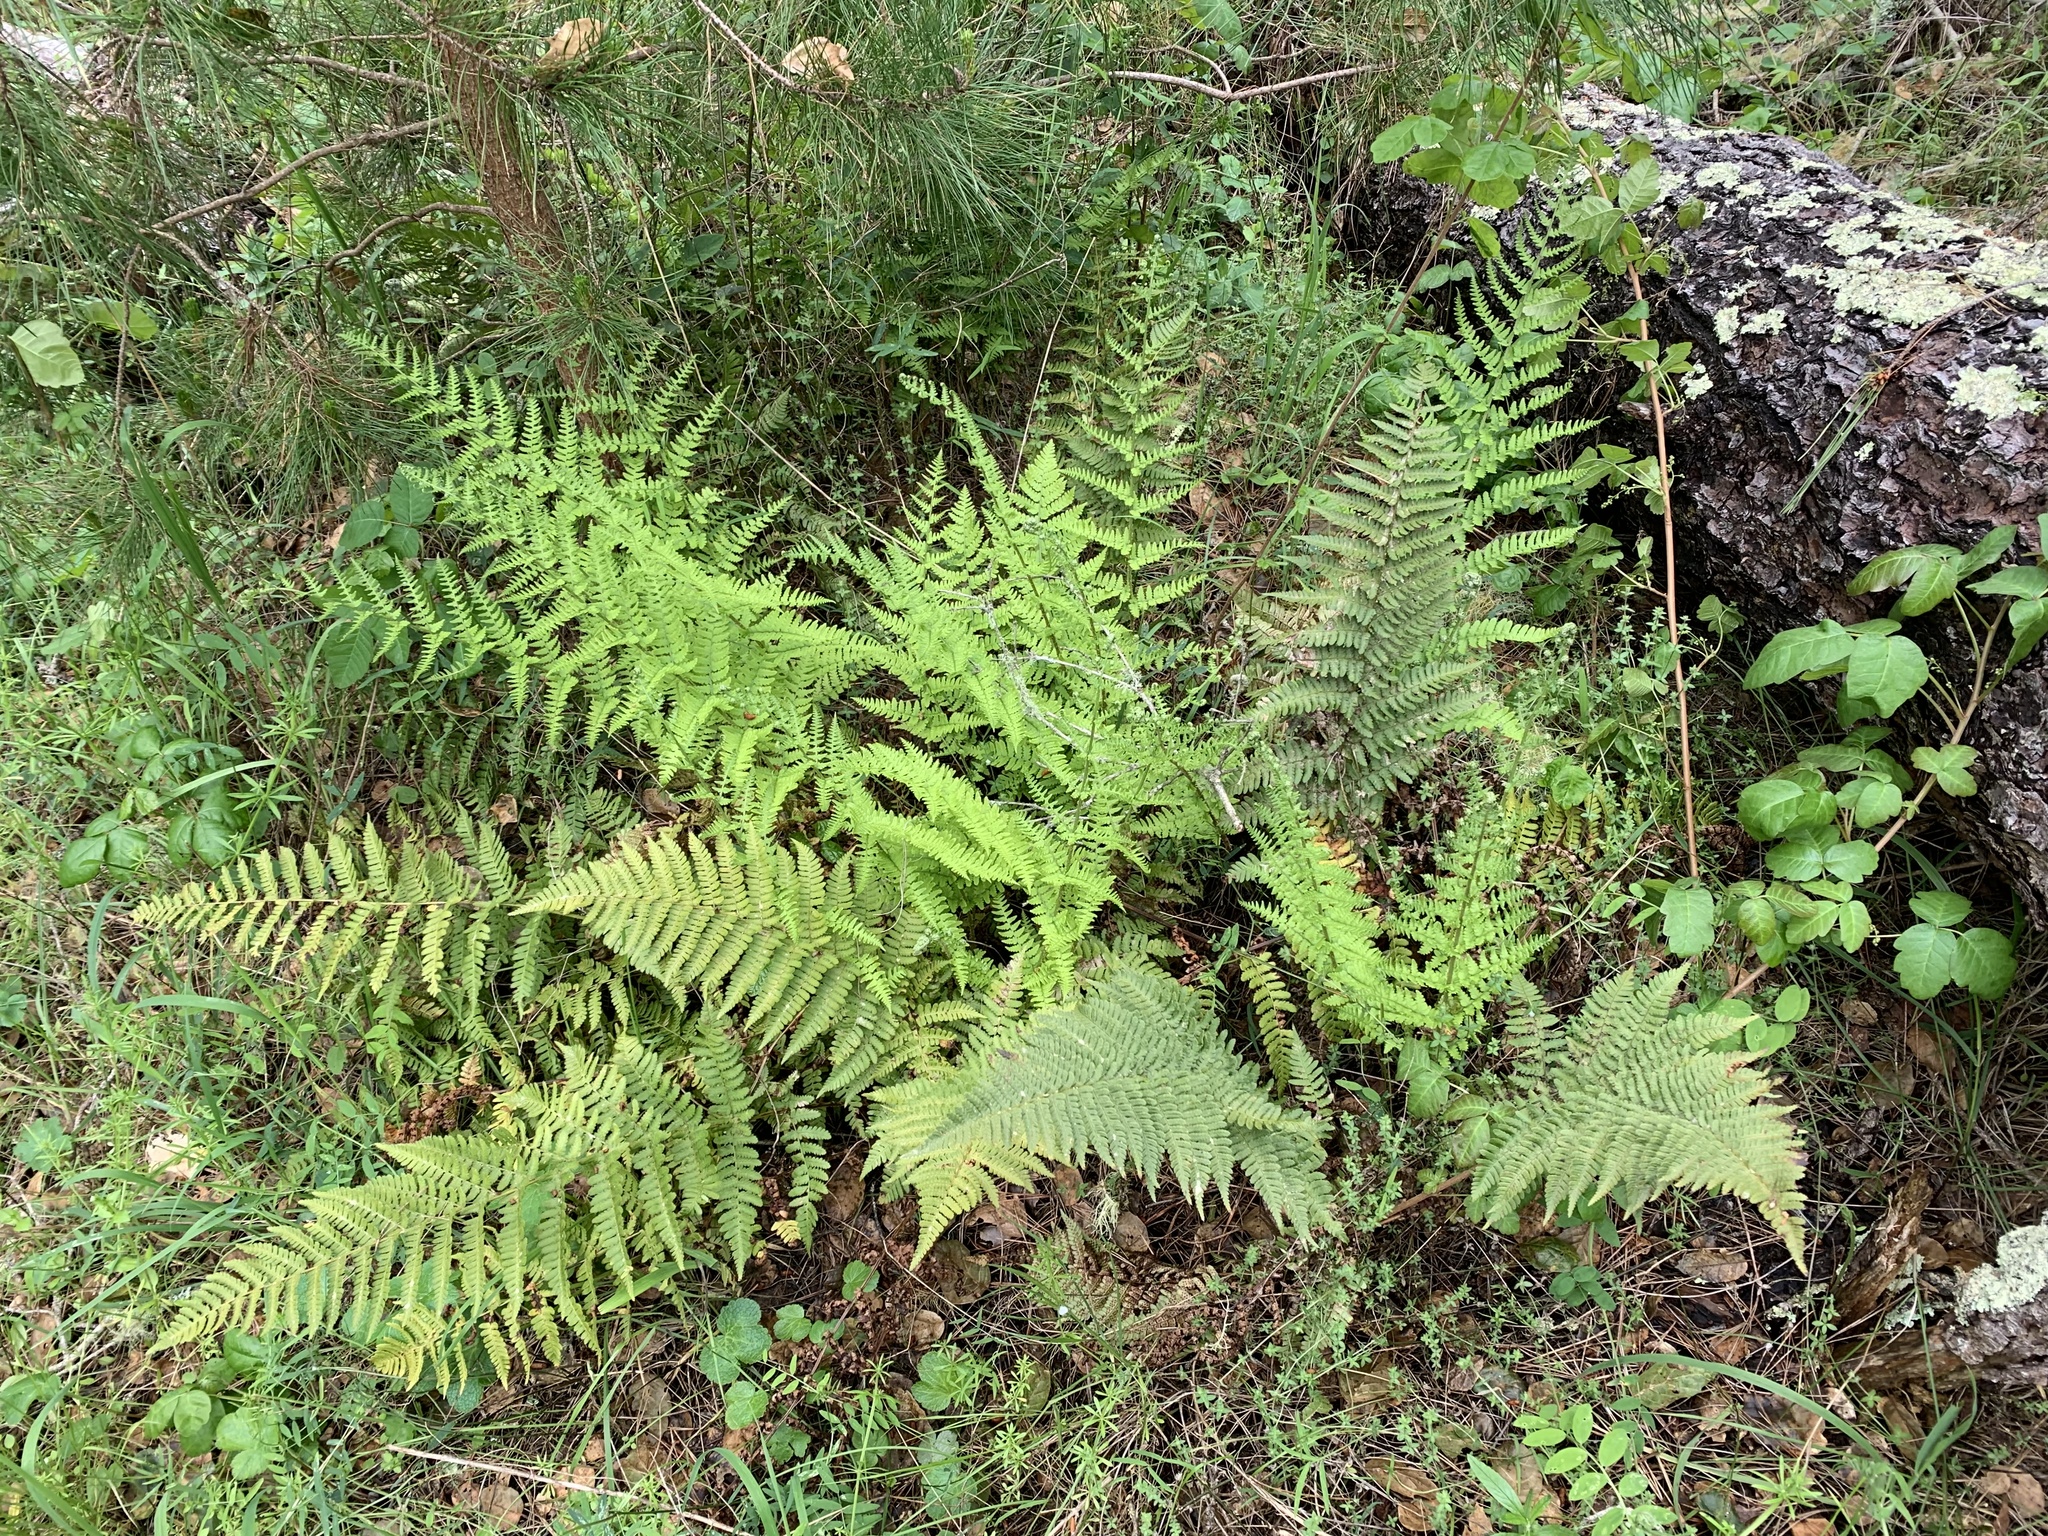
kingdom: Plantae
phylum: Tracheophyta
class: Polypodiopsida
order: Polypodiales
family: Dryopteridaceae
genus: Dryopteris
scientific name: Dryopteris arguta
